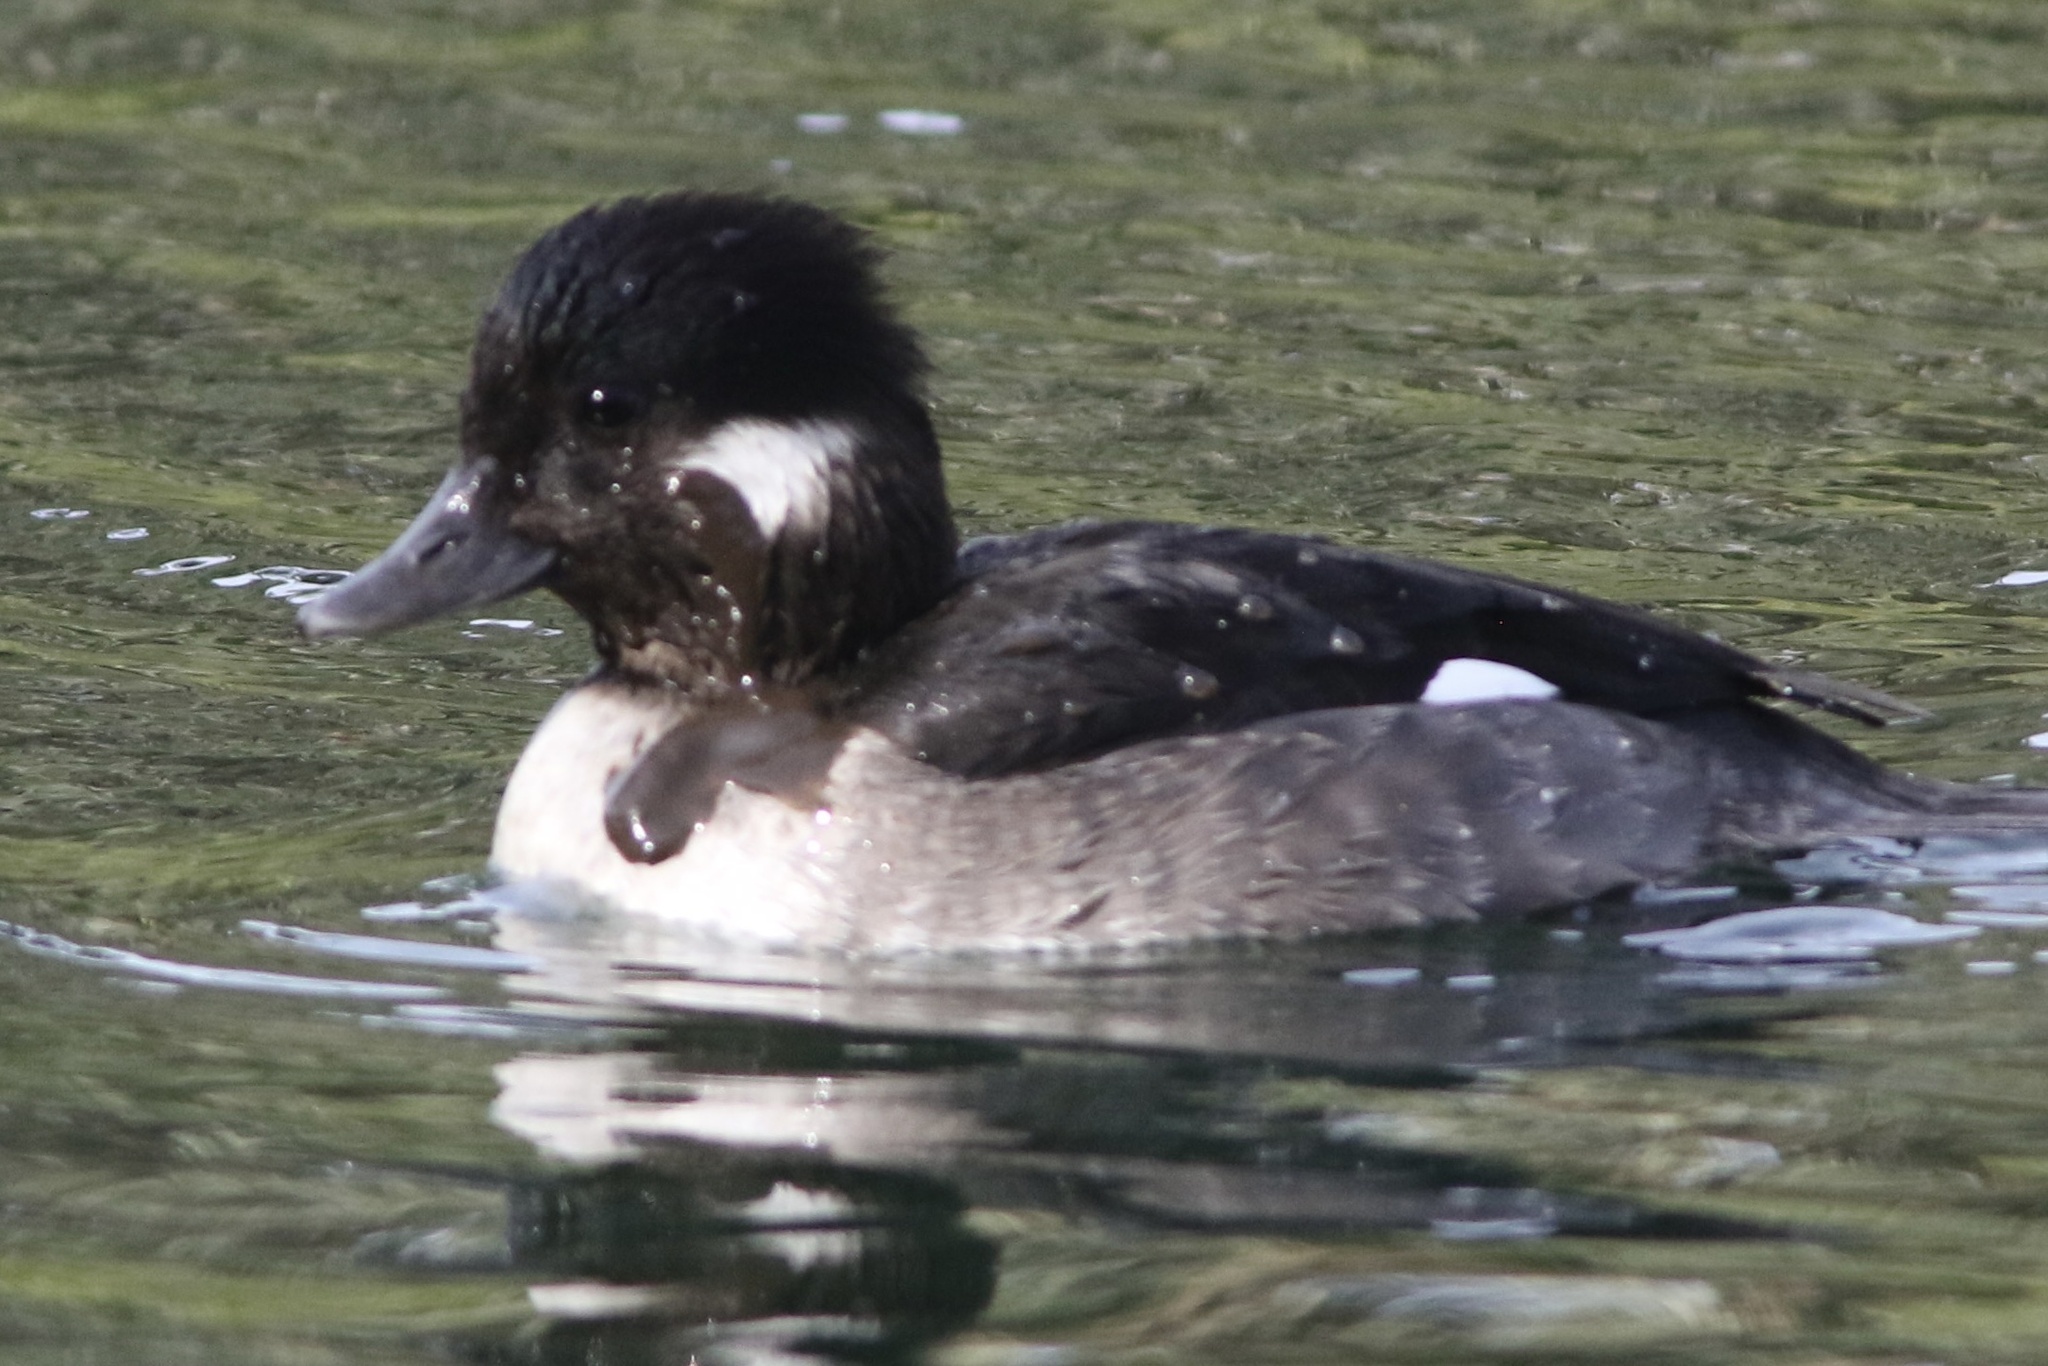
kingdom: Animalia
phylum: Chordata
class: Aves
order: Anseriformes
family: Anatidae
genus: Bucephala
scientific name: Bucephala albeola
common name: Bufflehead
